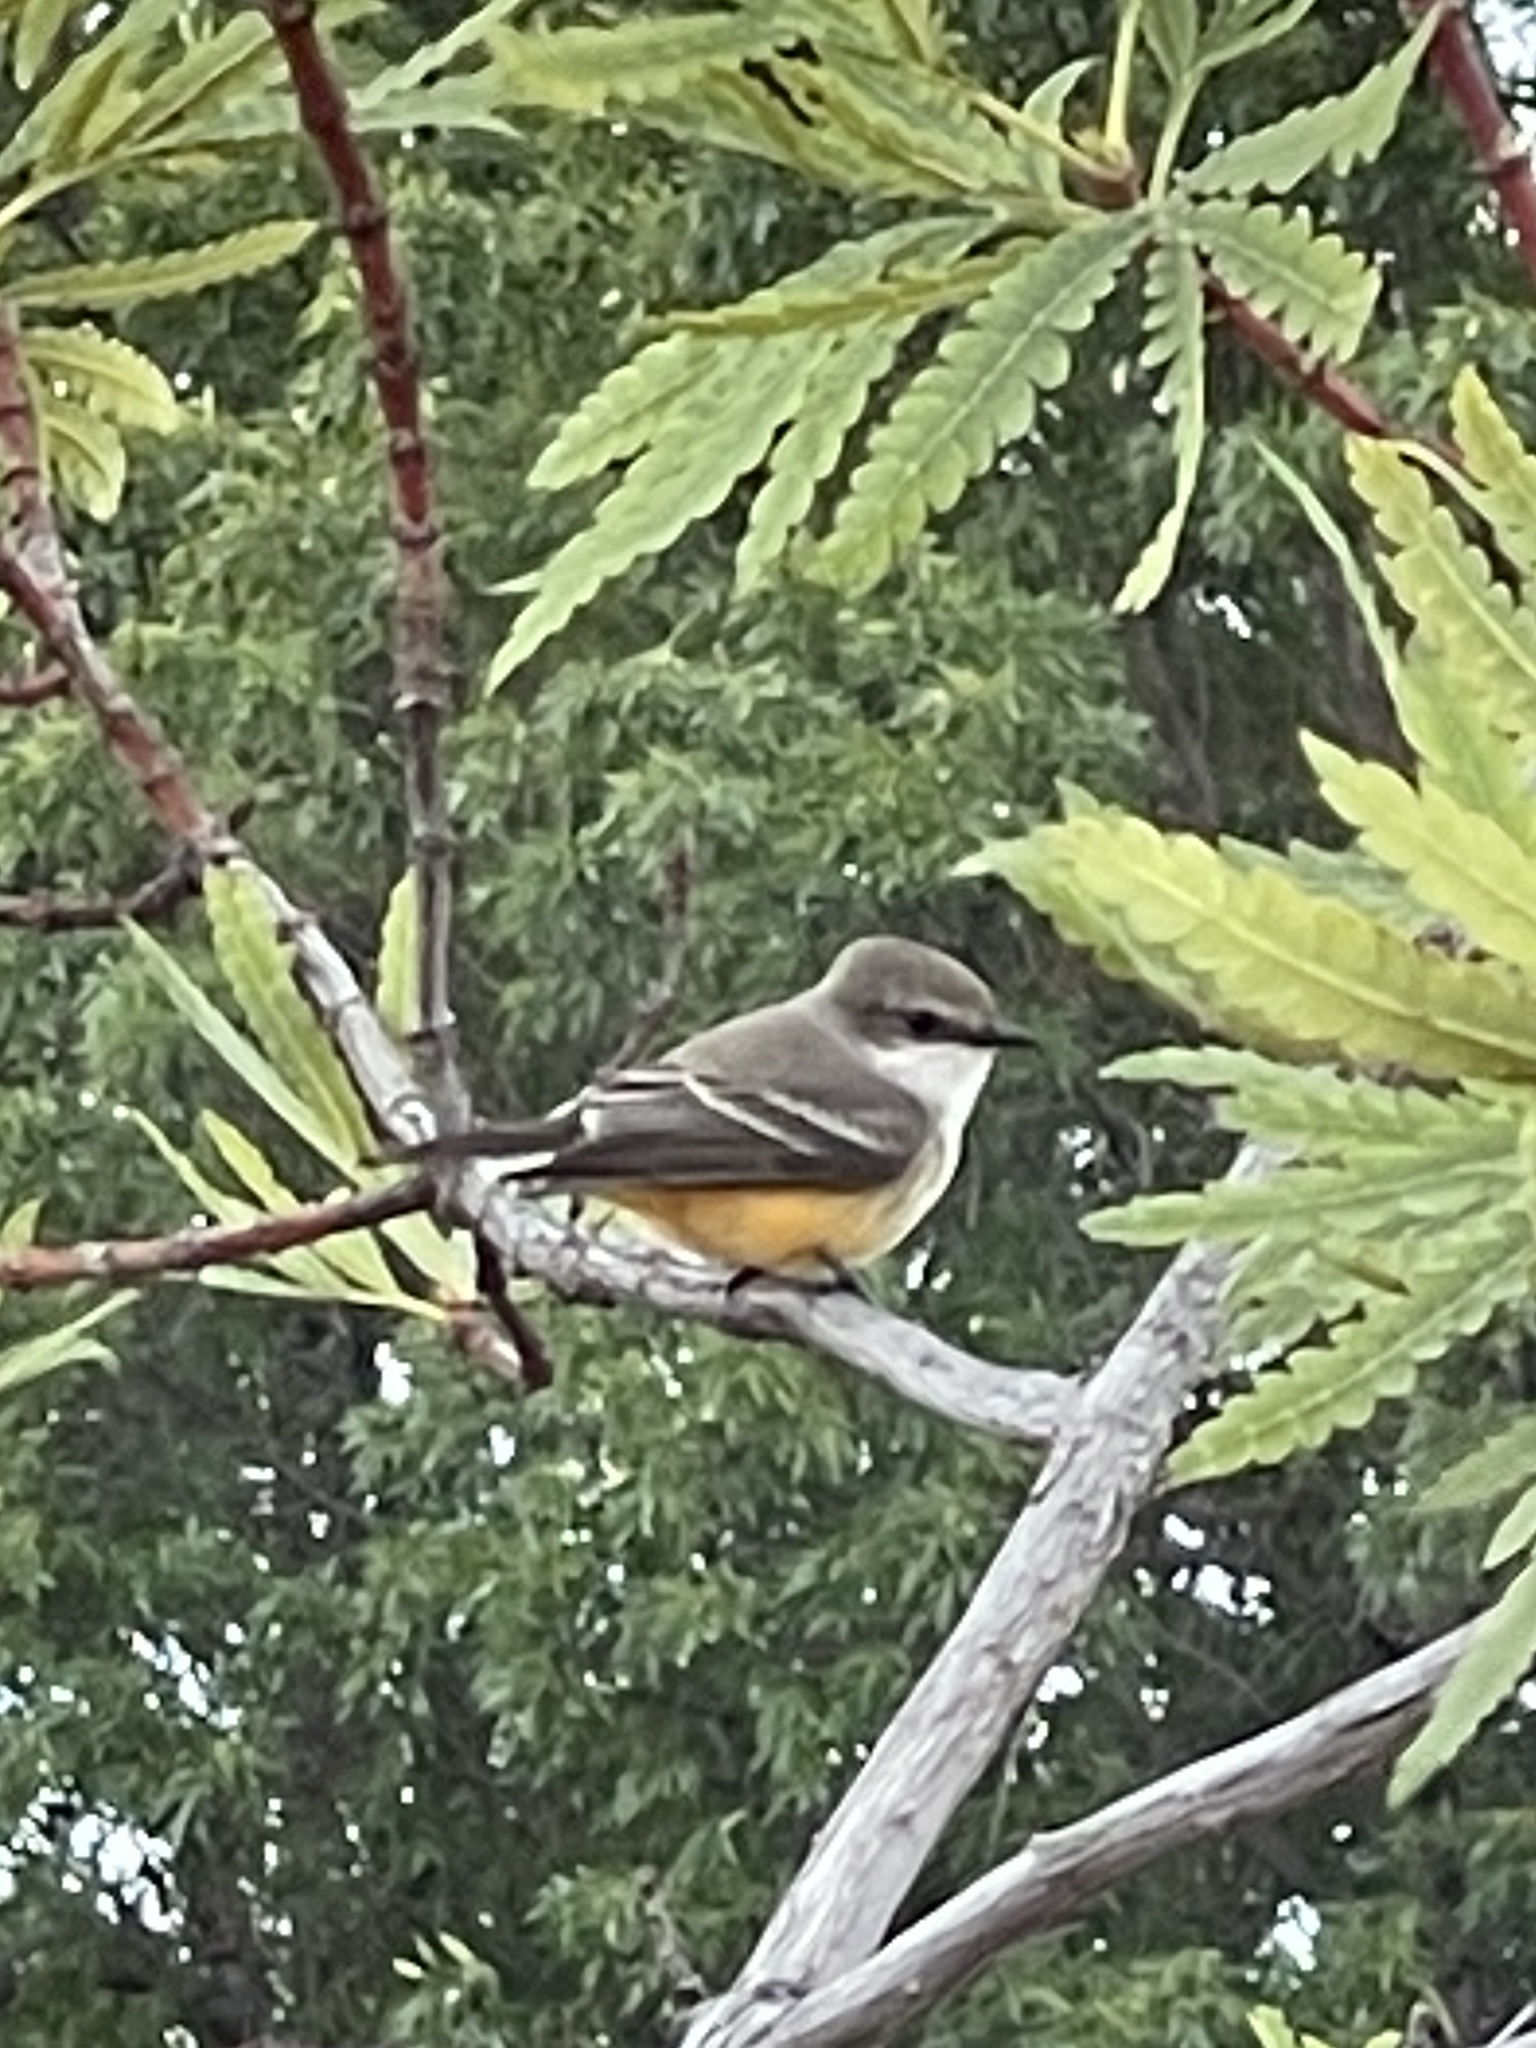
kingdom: Animalia
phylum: Chordata
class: Aves
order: Passeriformes
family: Tyrannidae
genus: Pyrocephalus
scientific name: Pyrocephalus rubinus
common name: Vermilion flycatcher
